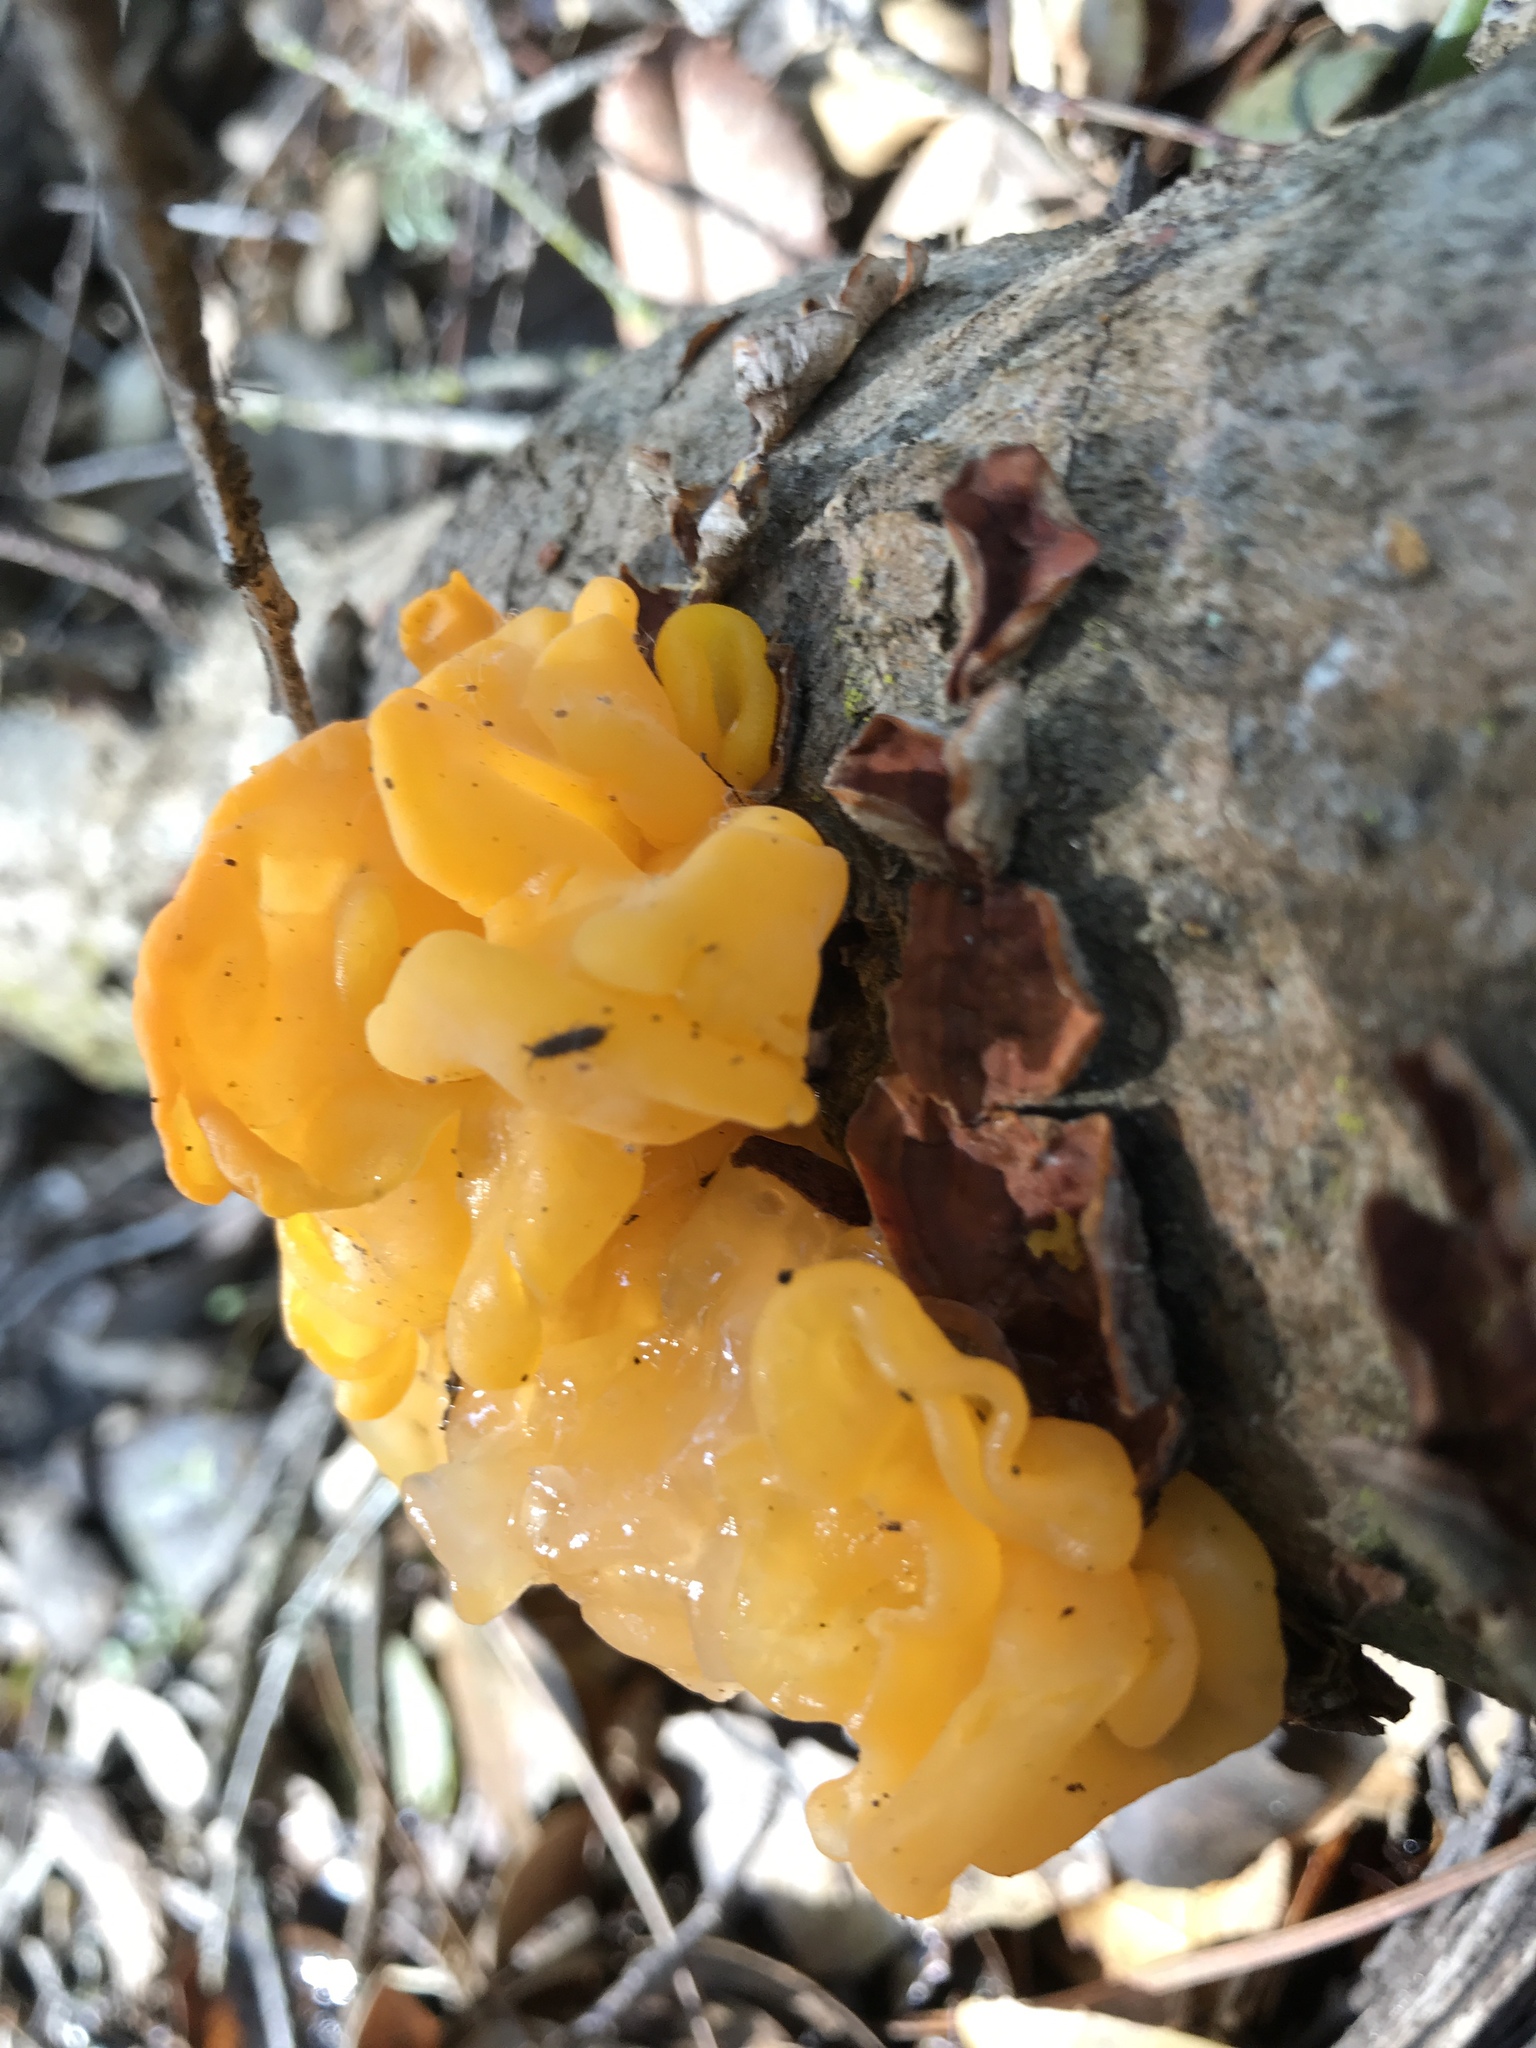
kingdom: Fungi
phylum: Basidiomycota
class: Tremellomycetes
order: Tremellales
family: Tremellaceae
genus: Tremella
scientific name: Tremella mesenterica
